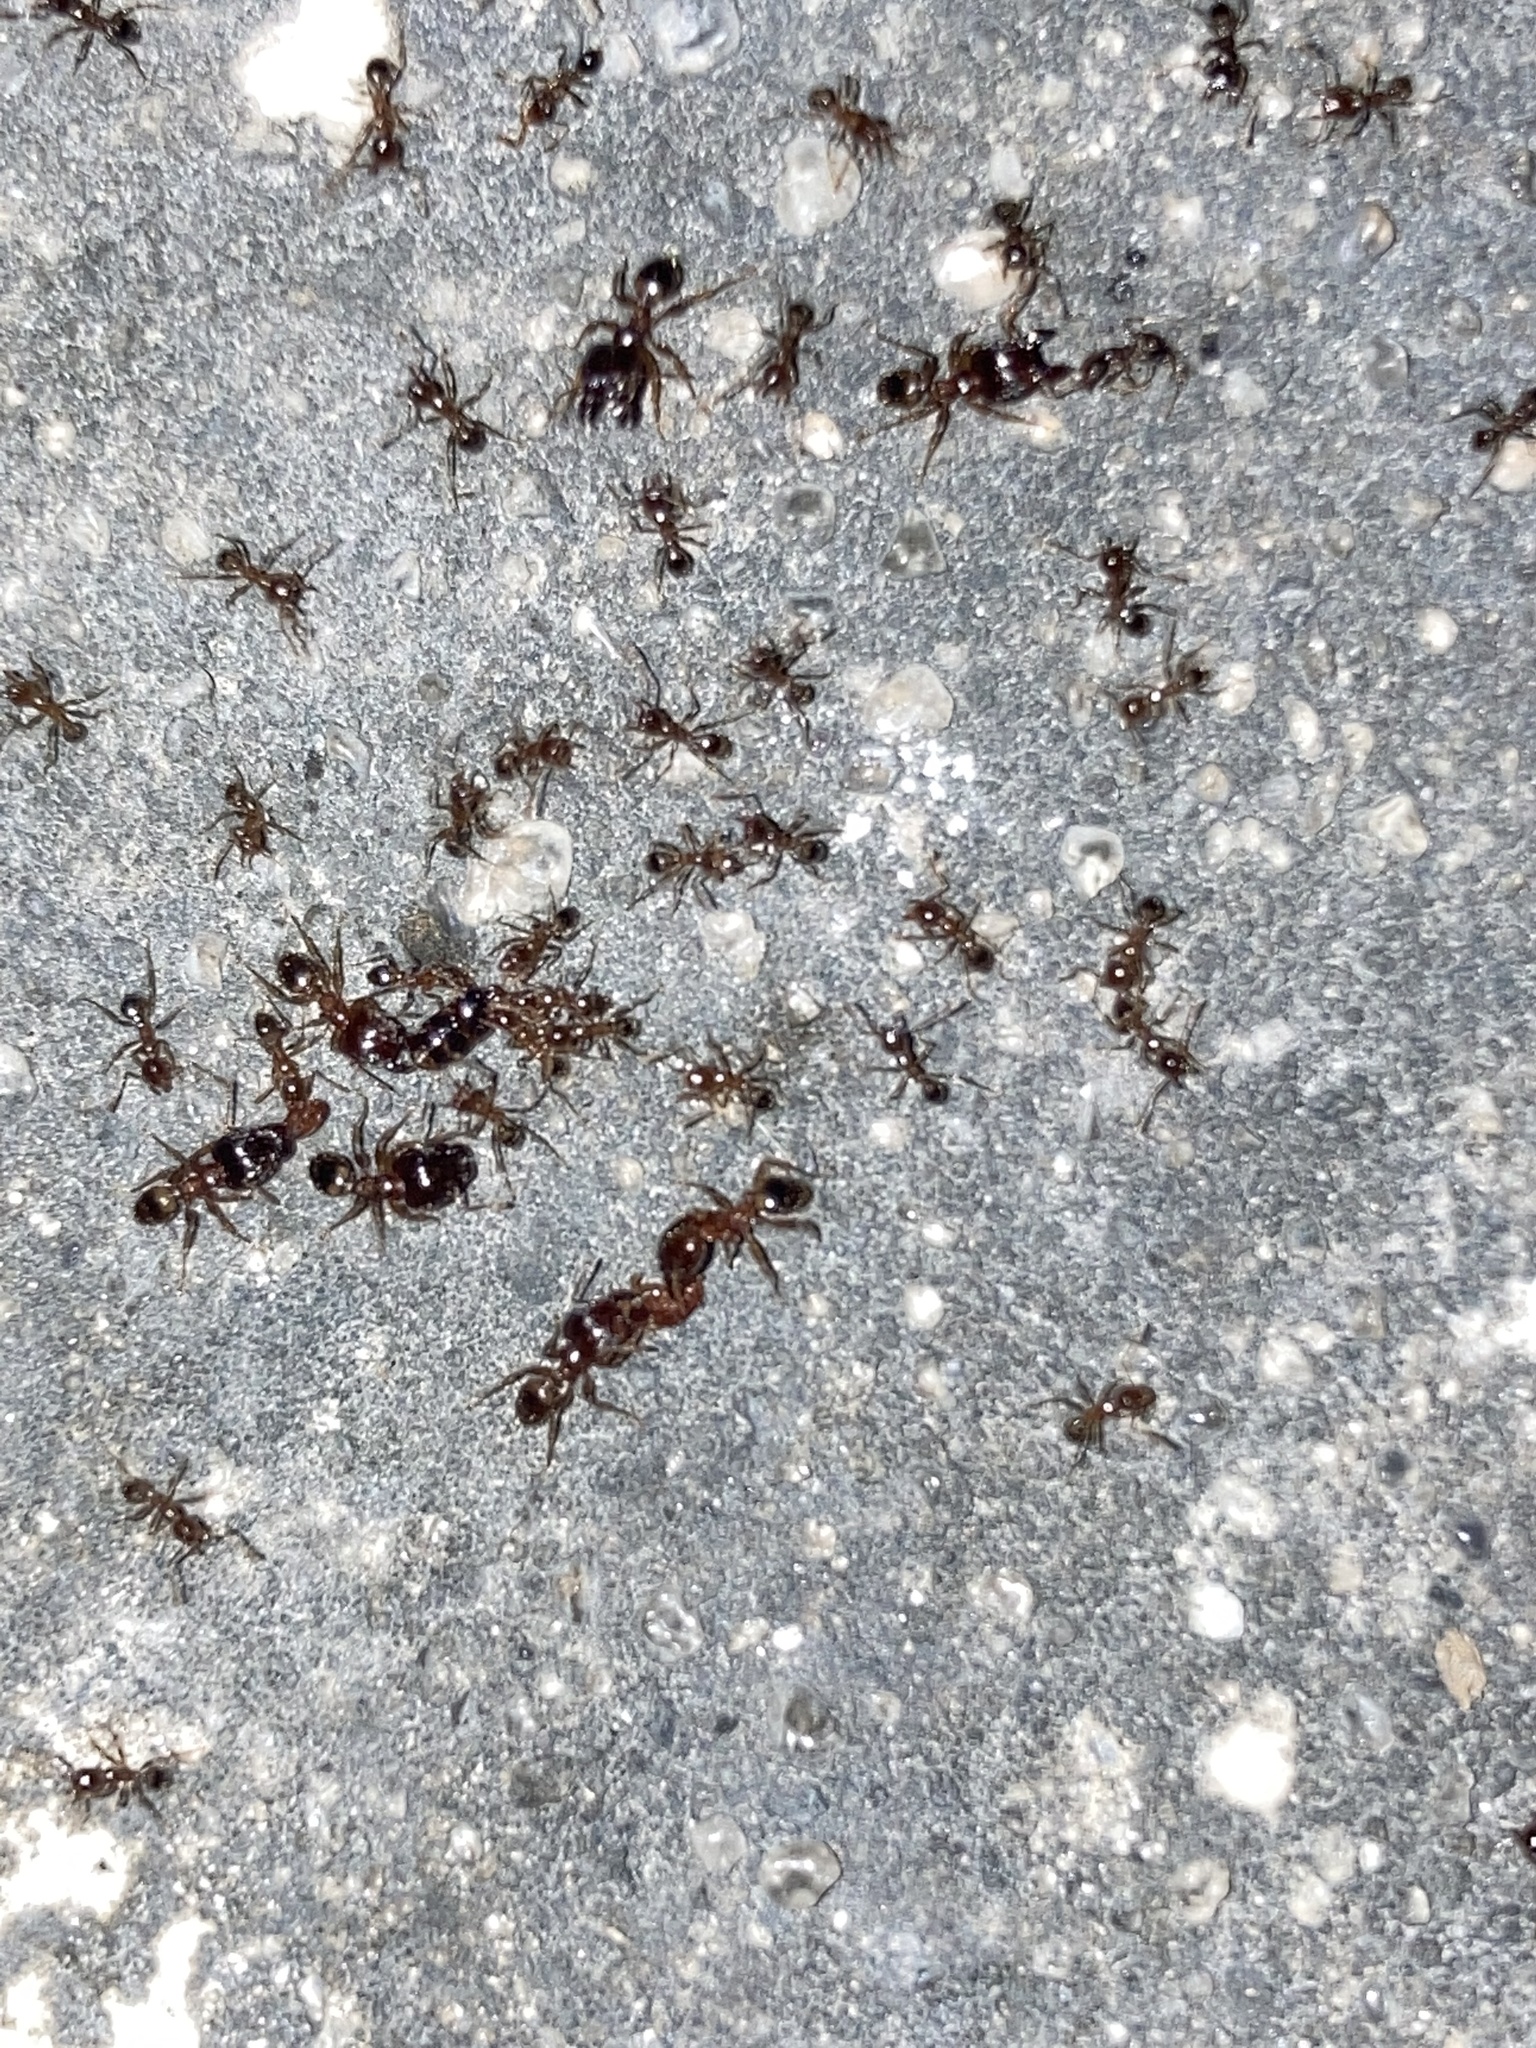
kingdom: Animalia
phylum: Arthropoda
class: Insecta
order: Hymenoptera
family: Formicidae
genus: Pheidole
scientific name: Pheidole megacephala
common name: Bigheaded ant
